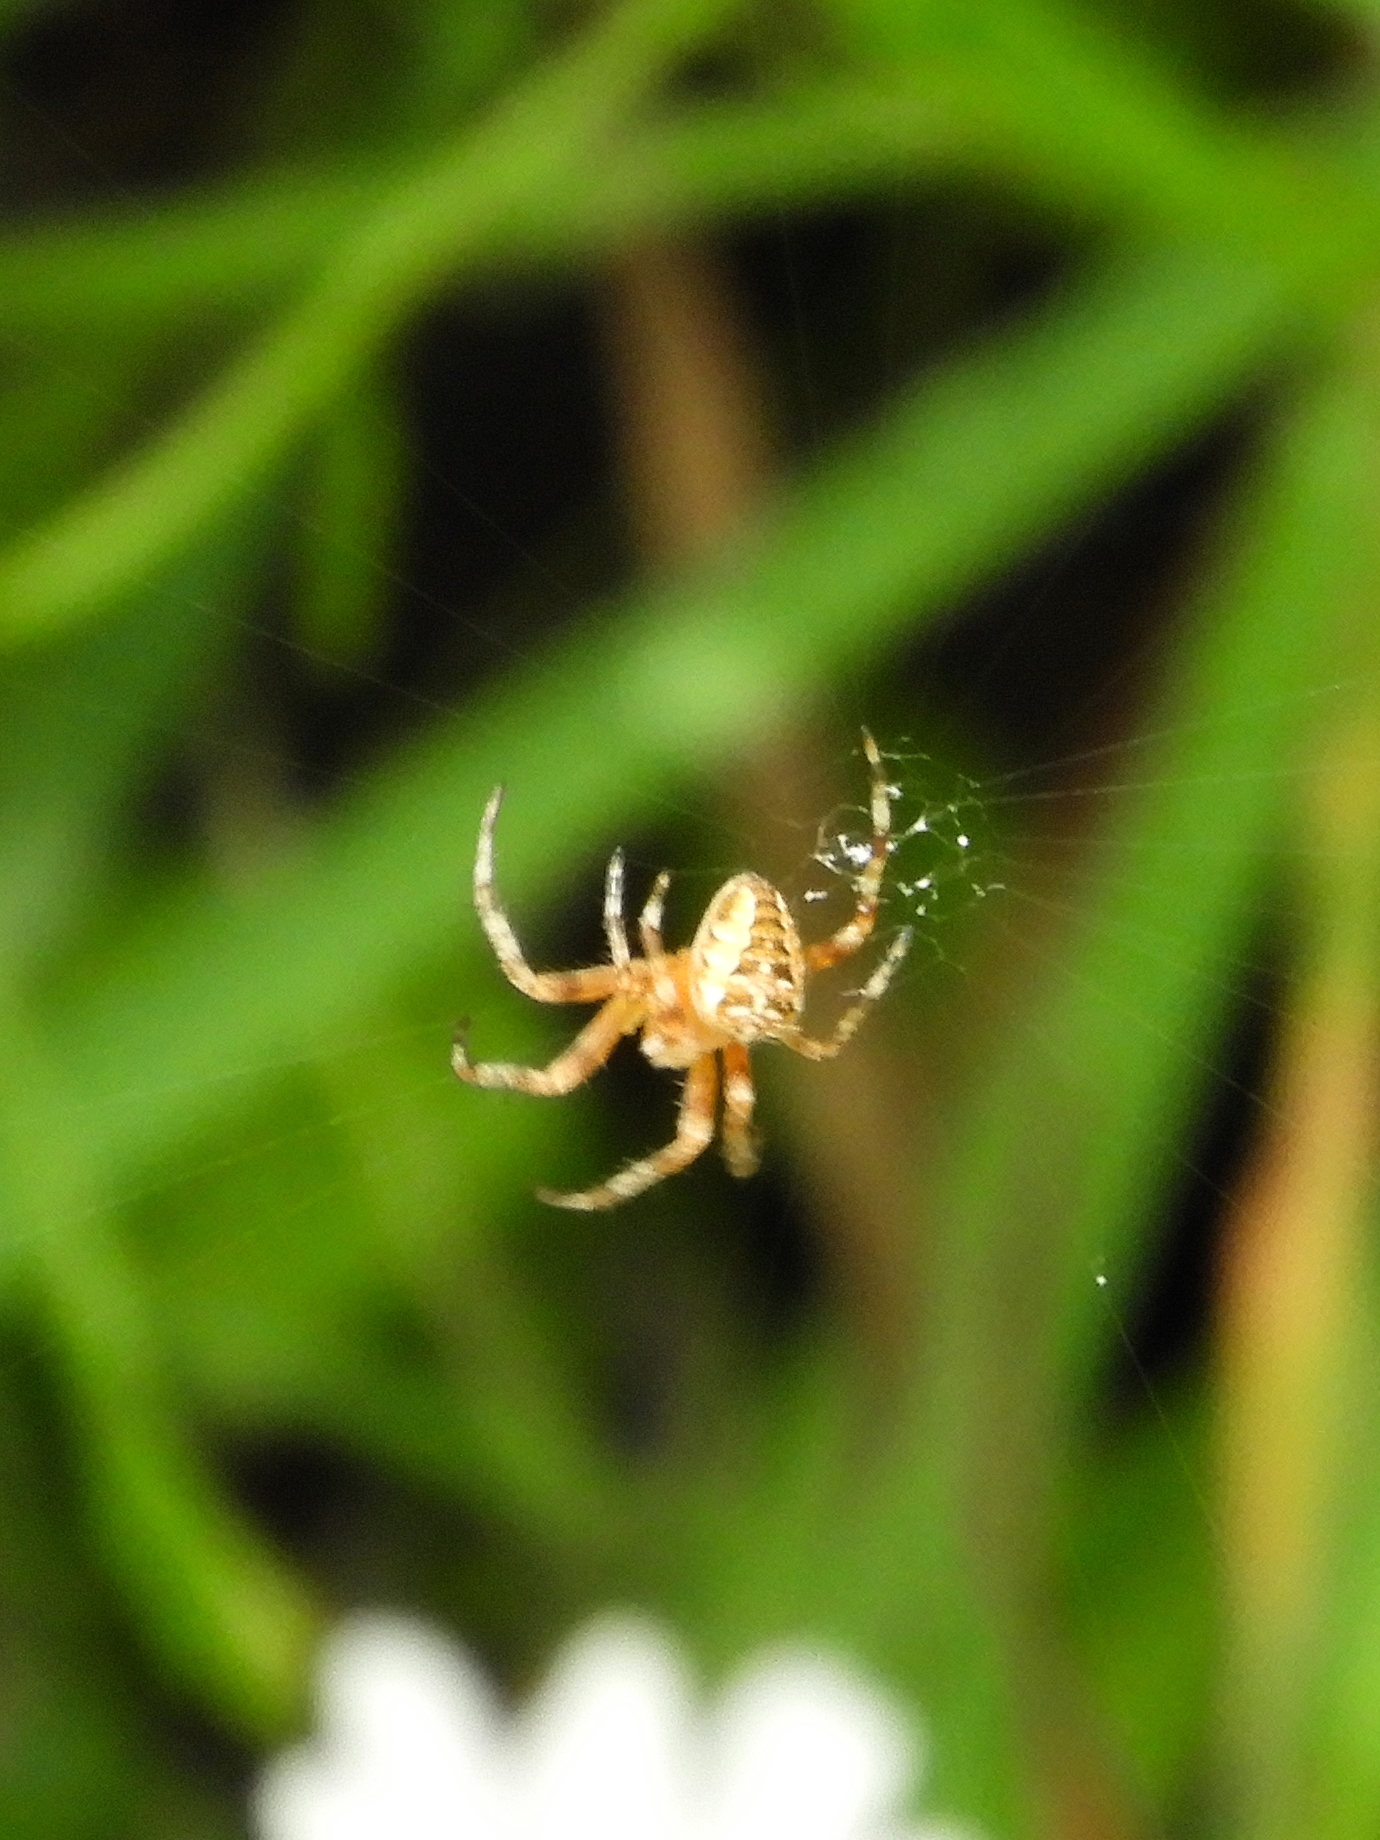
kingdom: Animalia
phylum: Arthropoda
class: Arachnida
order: Araneae
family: Araneidae
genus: Araneus
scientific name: Araneus diadematus
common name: Cross orbweaver
